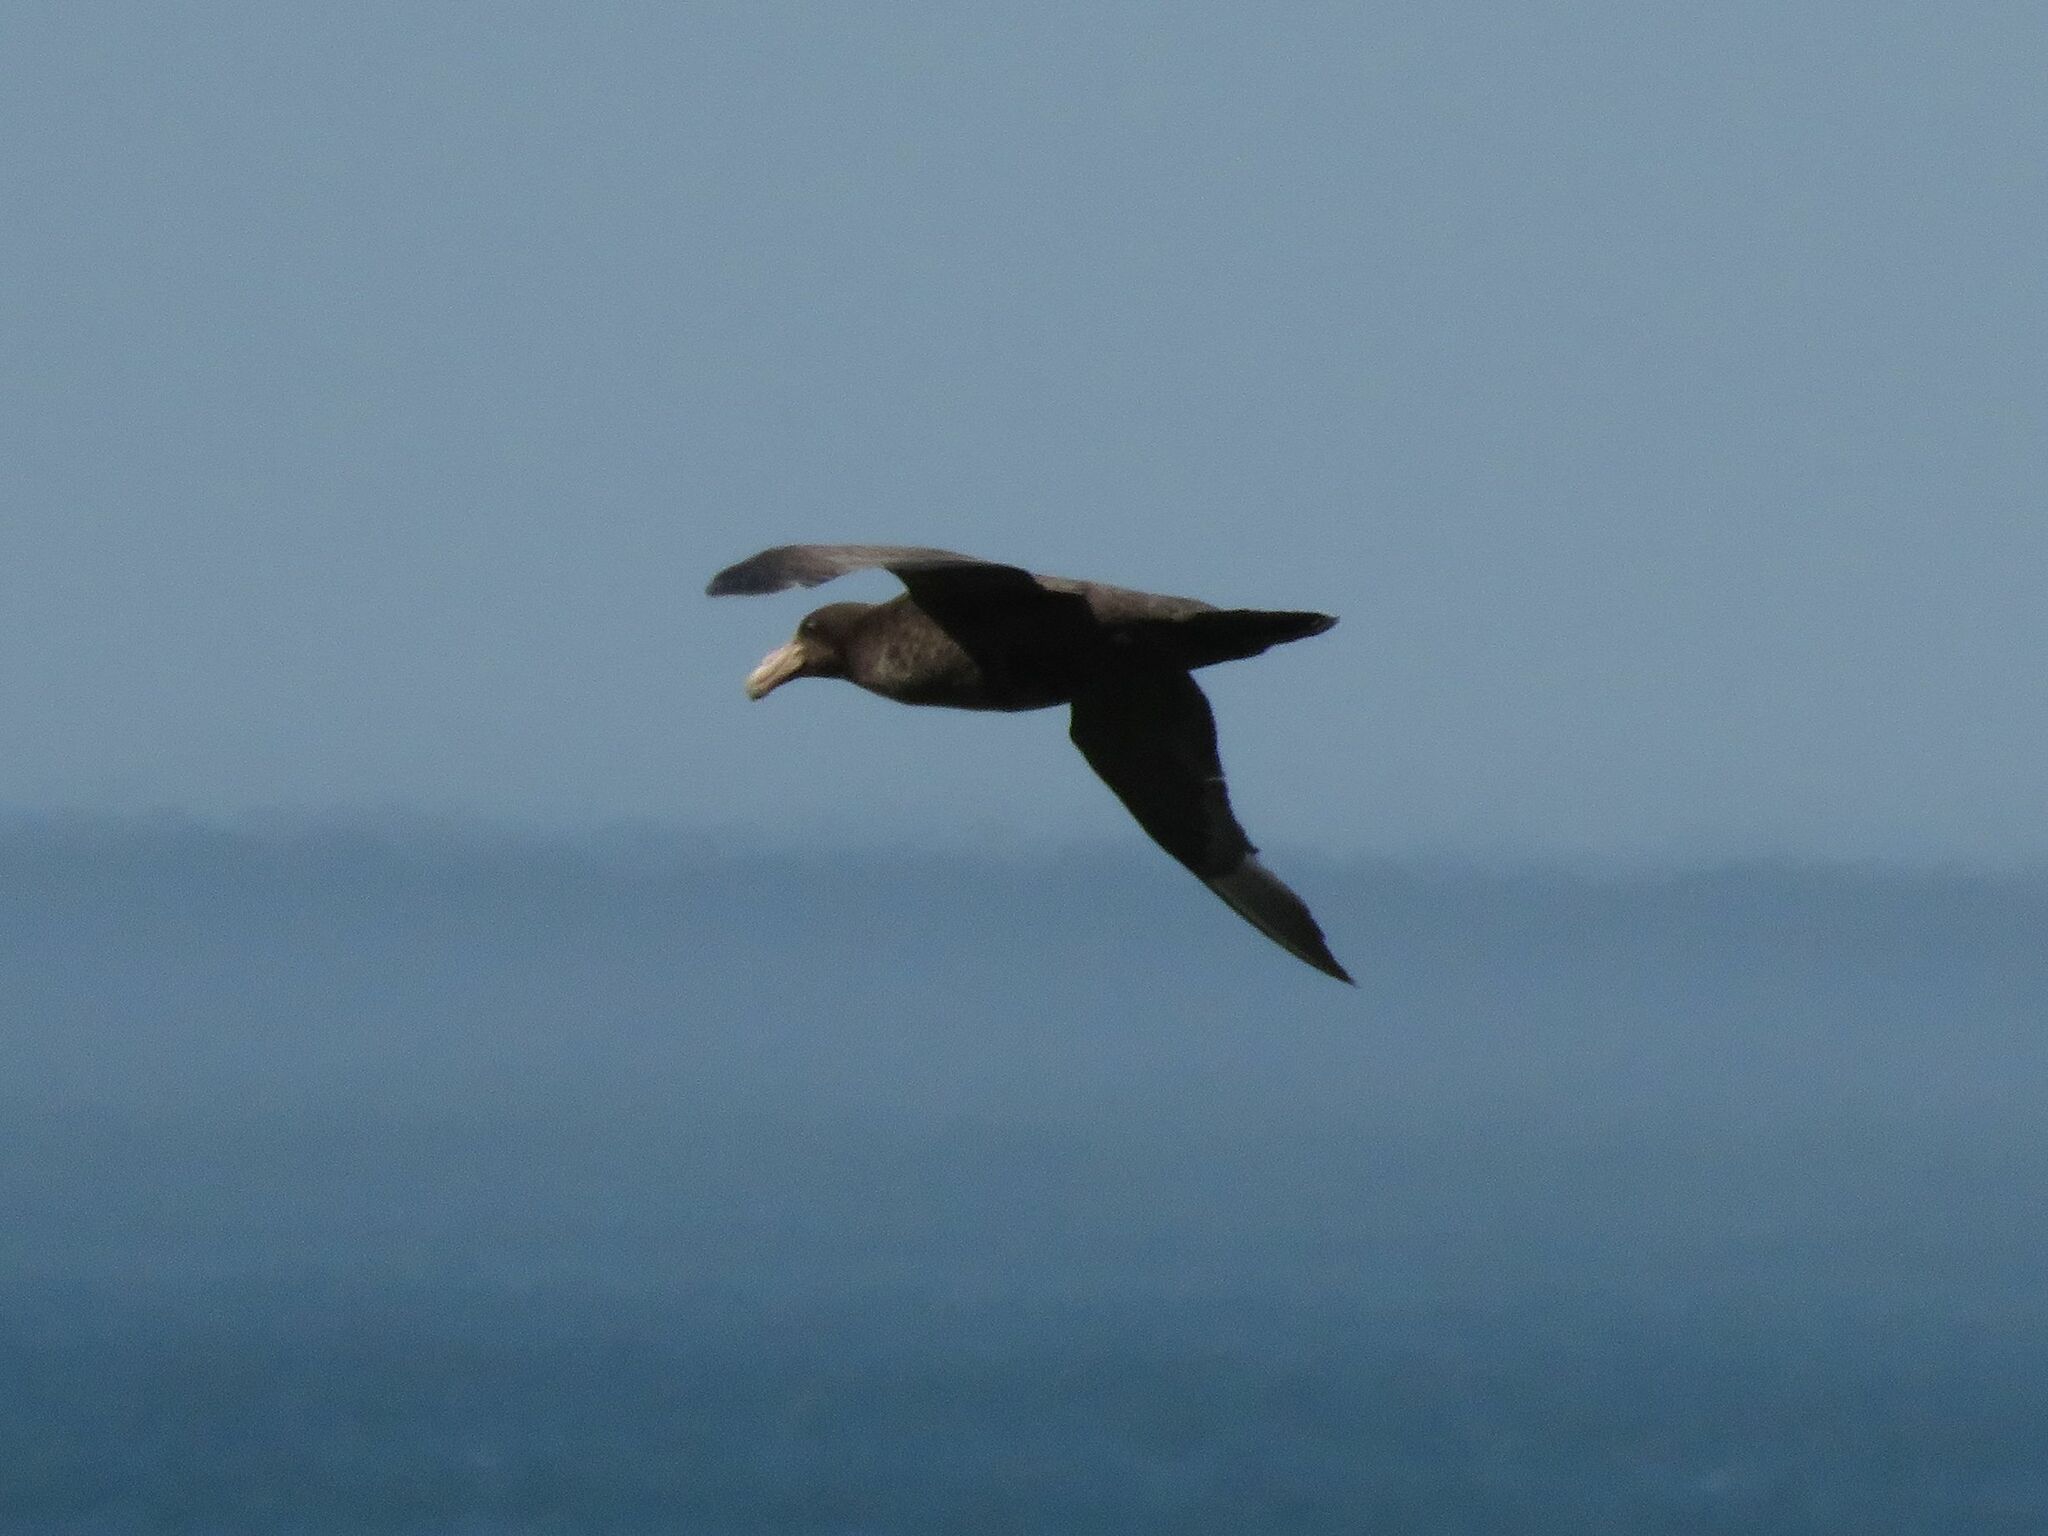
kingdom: Animalia
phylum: Chordata
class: Aves
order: Procellariiformes
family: Procellariidae
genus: Macronectes
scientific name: Macronectes giganteus
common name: Southern giant petrel
